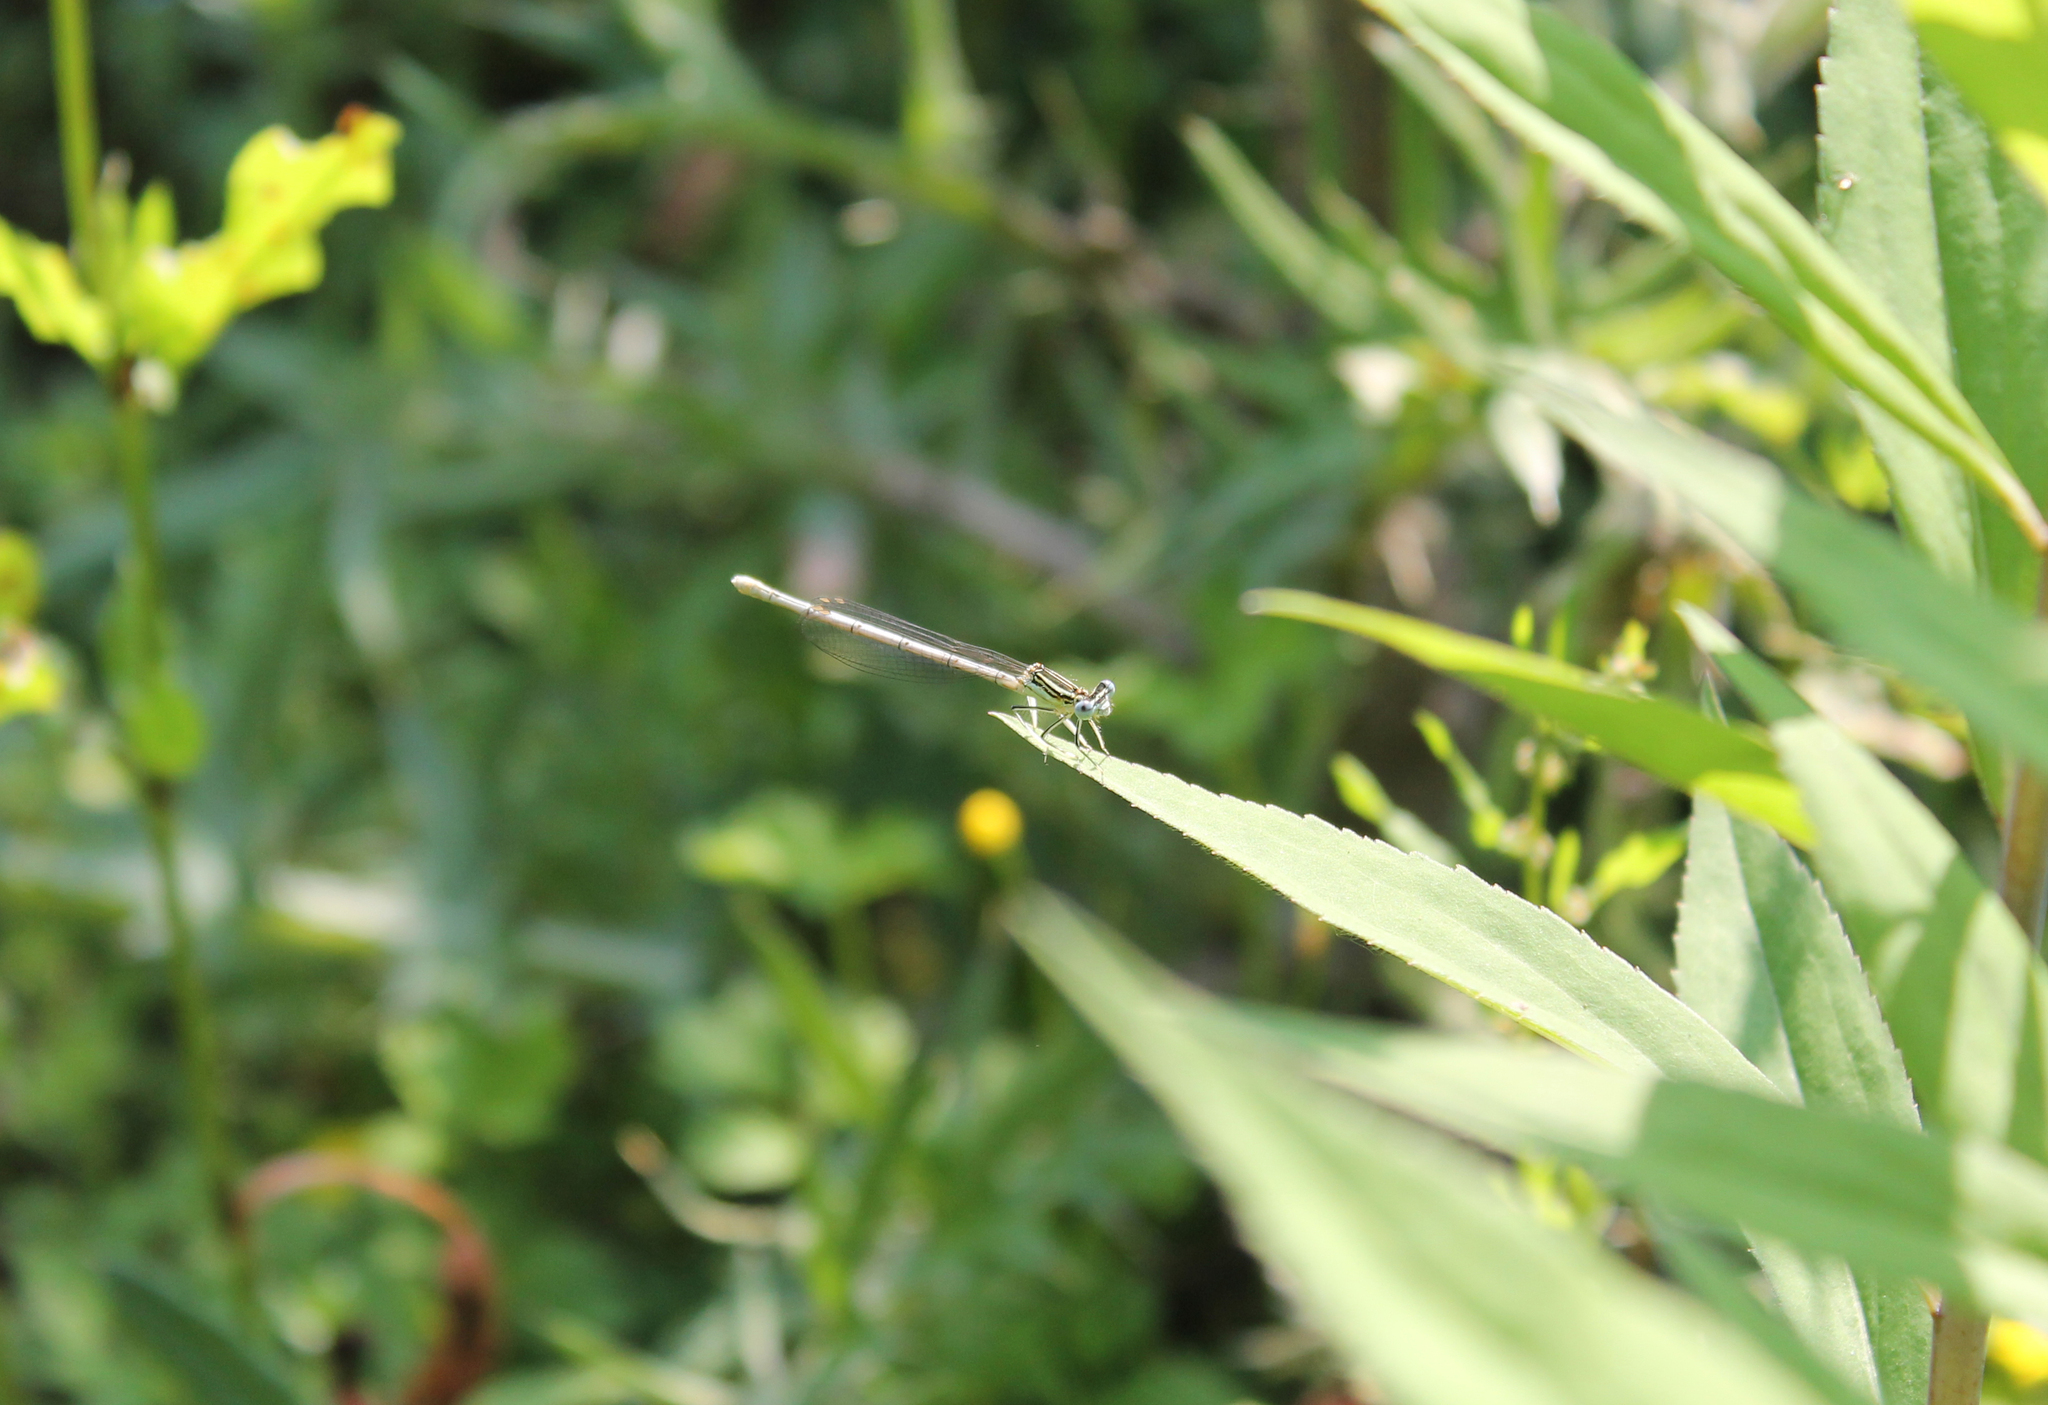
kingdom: Animalia
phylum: Arthropoda
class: Insecta
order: Odonata
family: Platycnemididae
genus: Platycnemis
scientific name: Platycnemis pennipes
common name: White-legged damselfly
